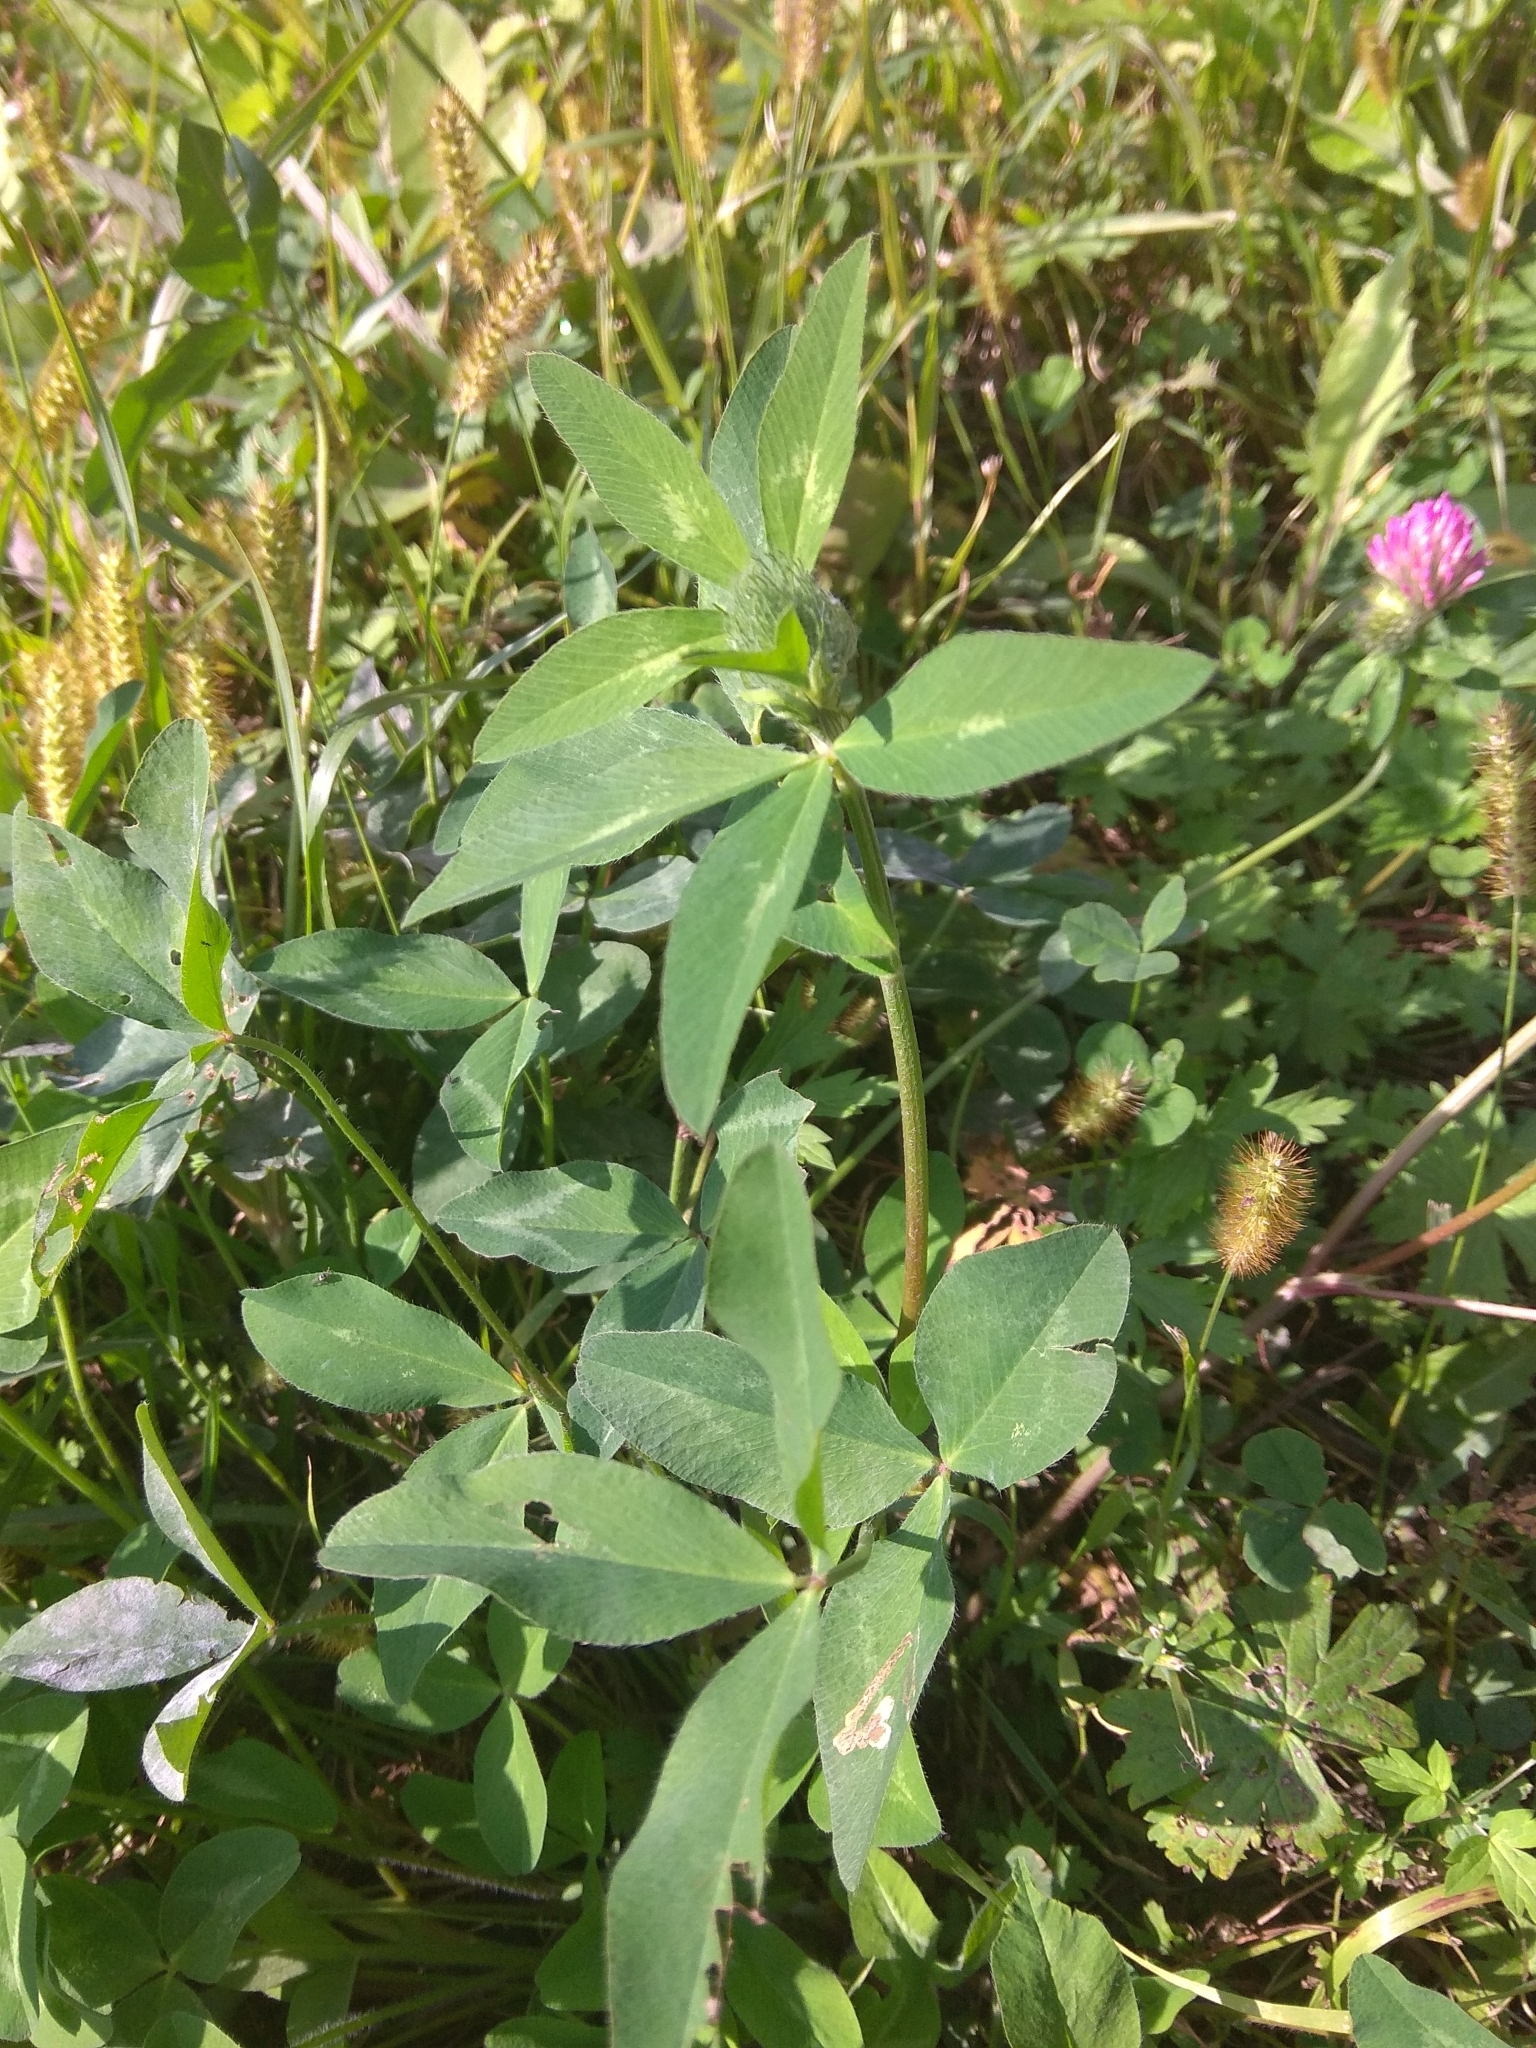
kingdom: Plantae
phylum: Tracheophyta
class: Magnoliopsida
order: Fabales
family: Fabaceae
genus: Trifolium
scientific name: Trifolium pratense
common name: Red clover
